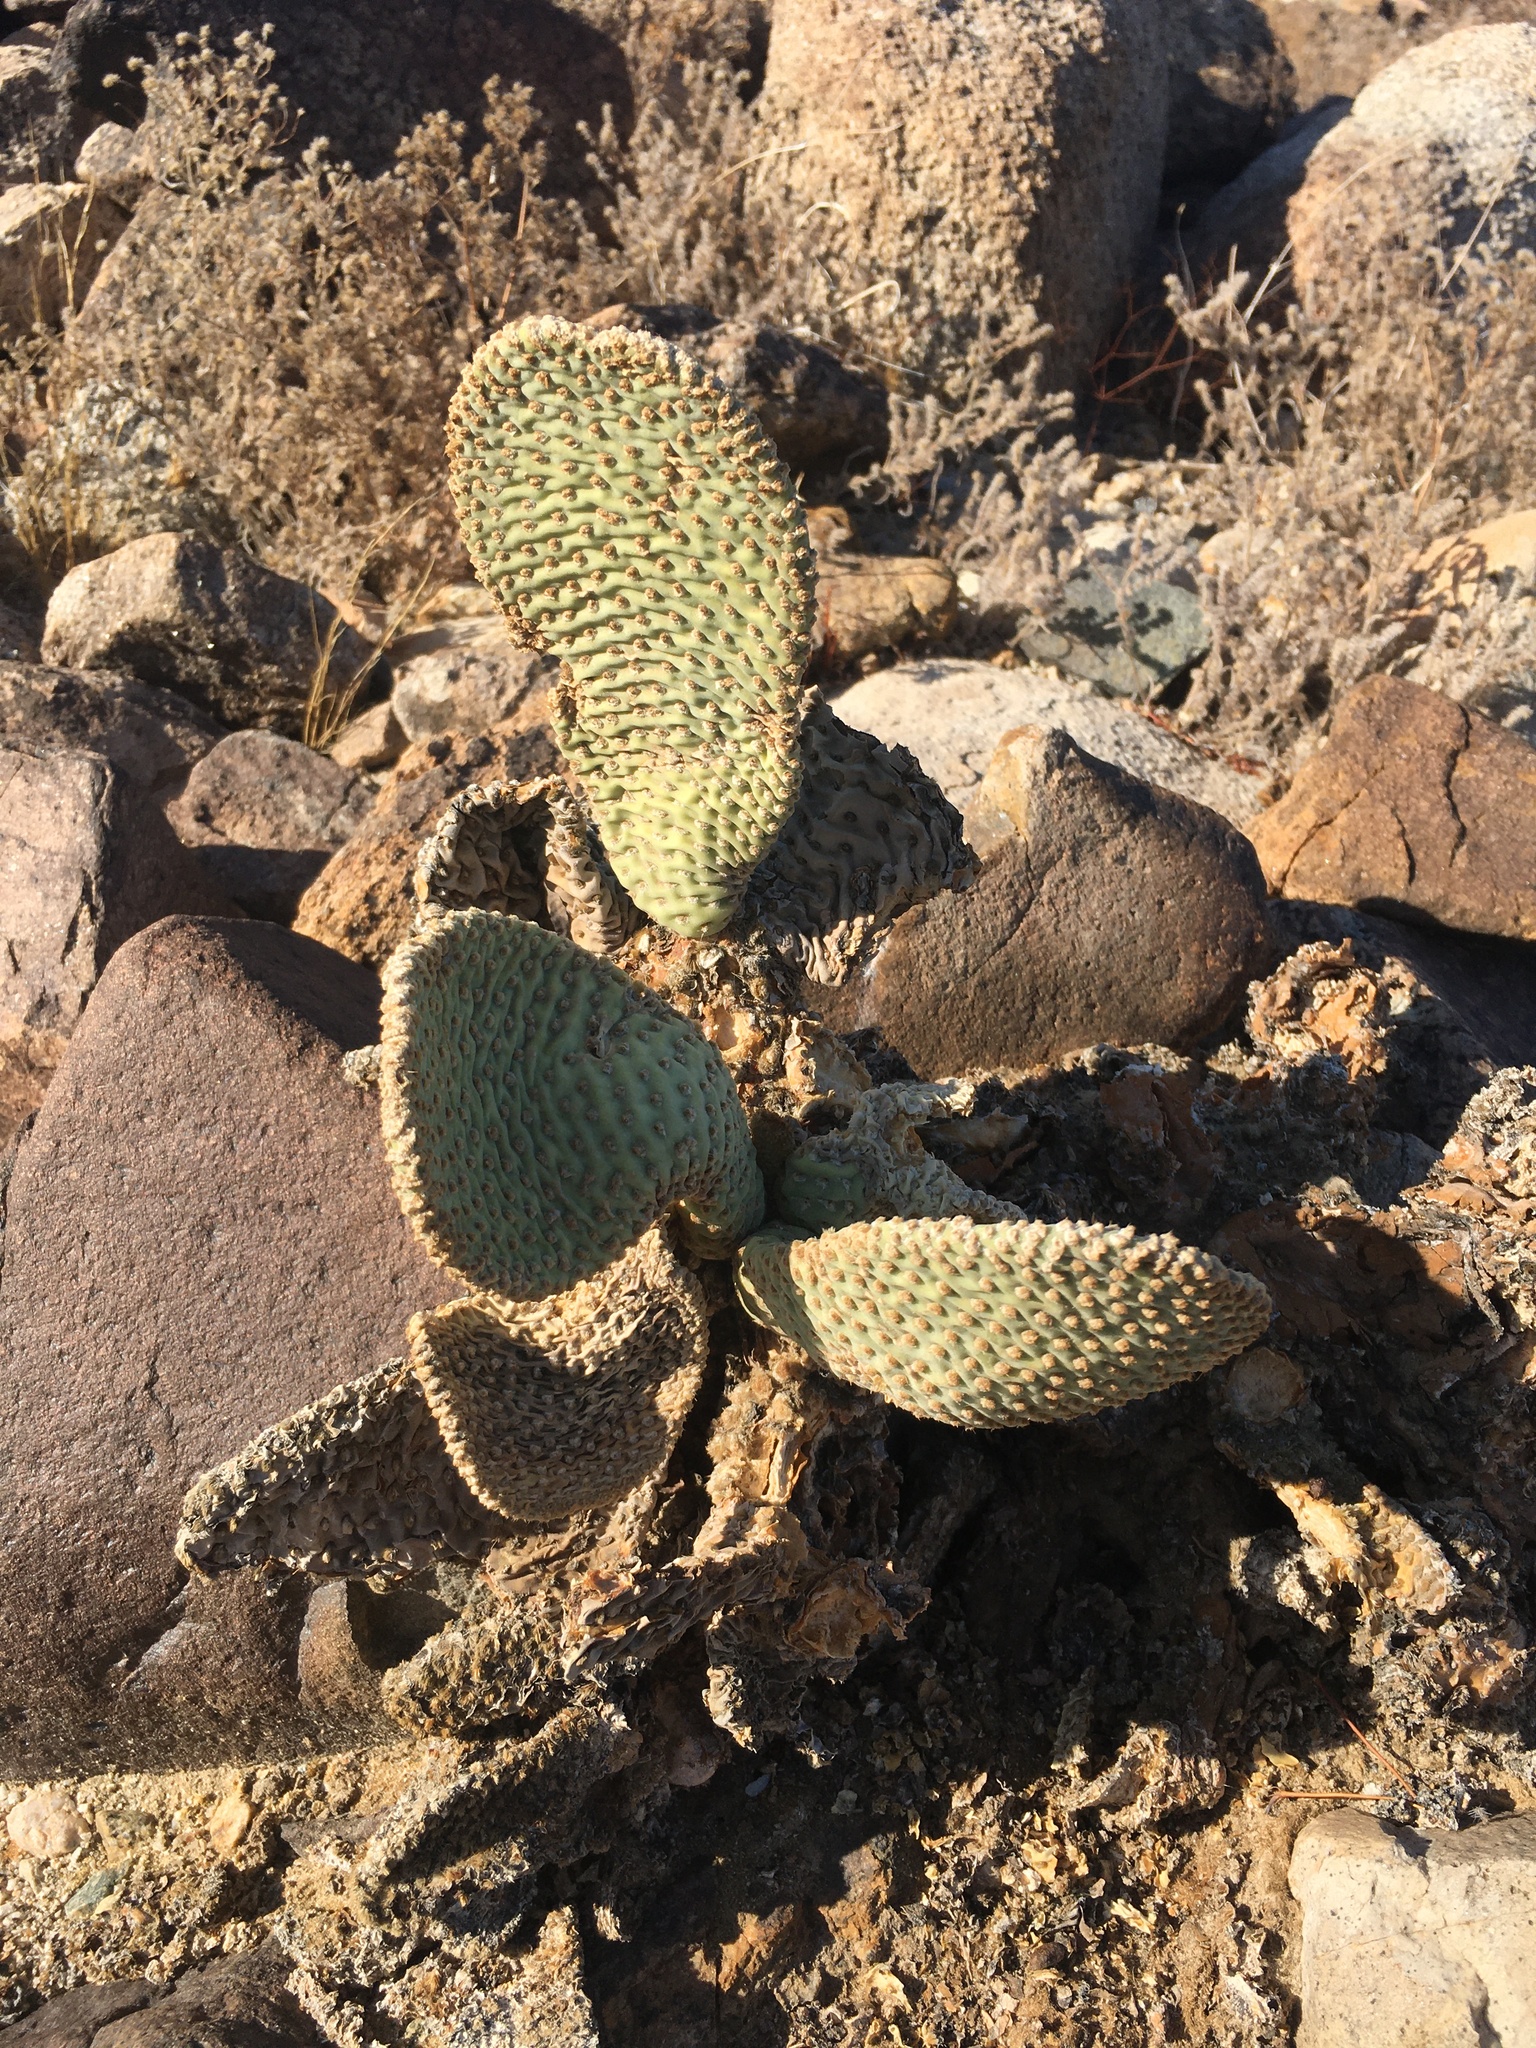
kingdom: Plantae
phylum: Tracheophyta
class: Magnoliopsida
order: Caryophyllales
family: Cactaceae
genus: Opuntia
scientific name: Opuntia basilaris
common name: Beavertail prickly-pear
